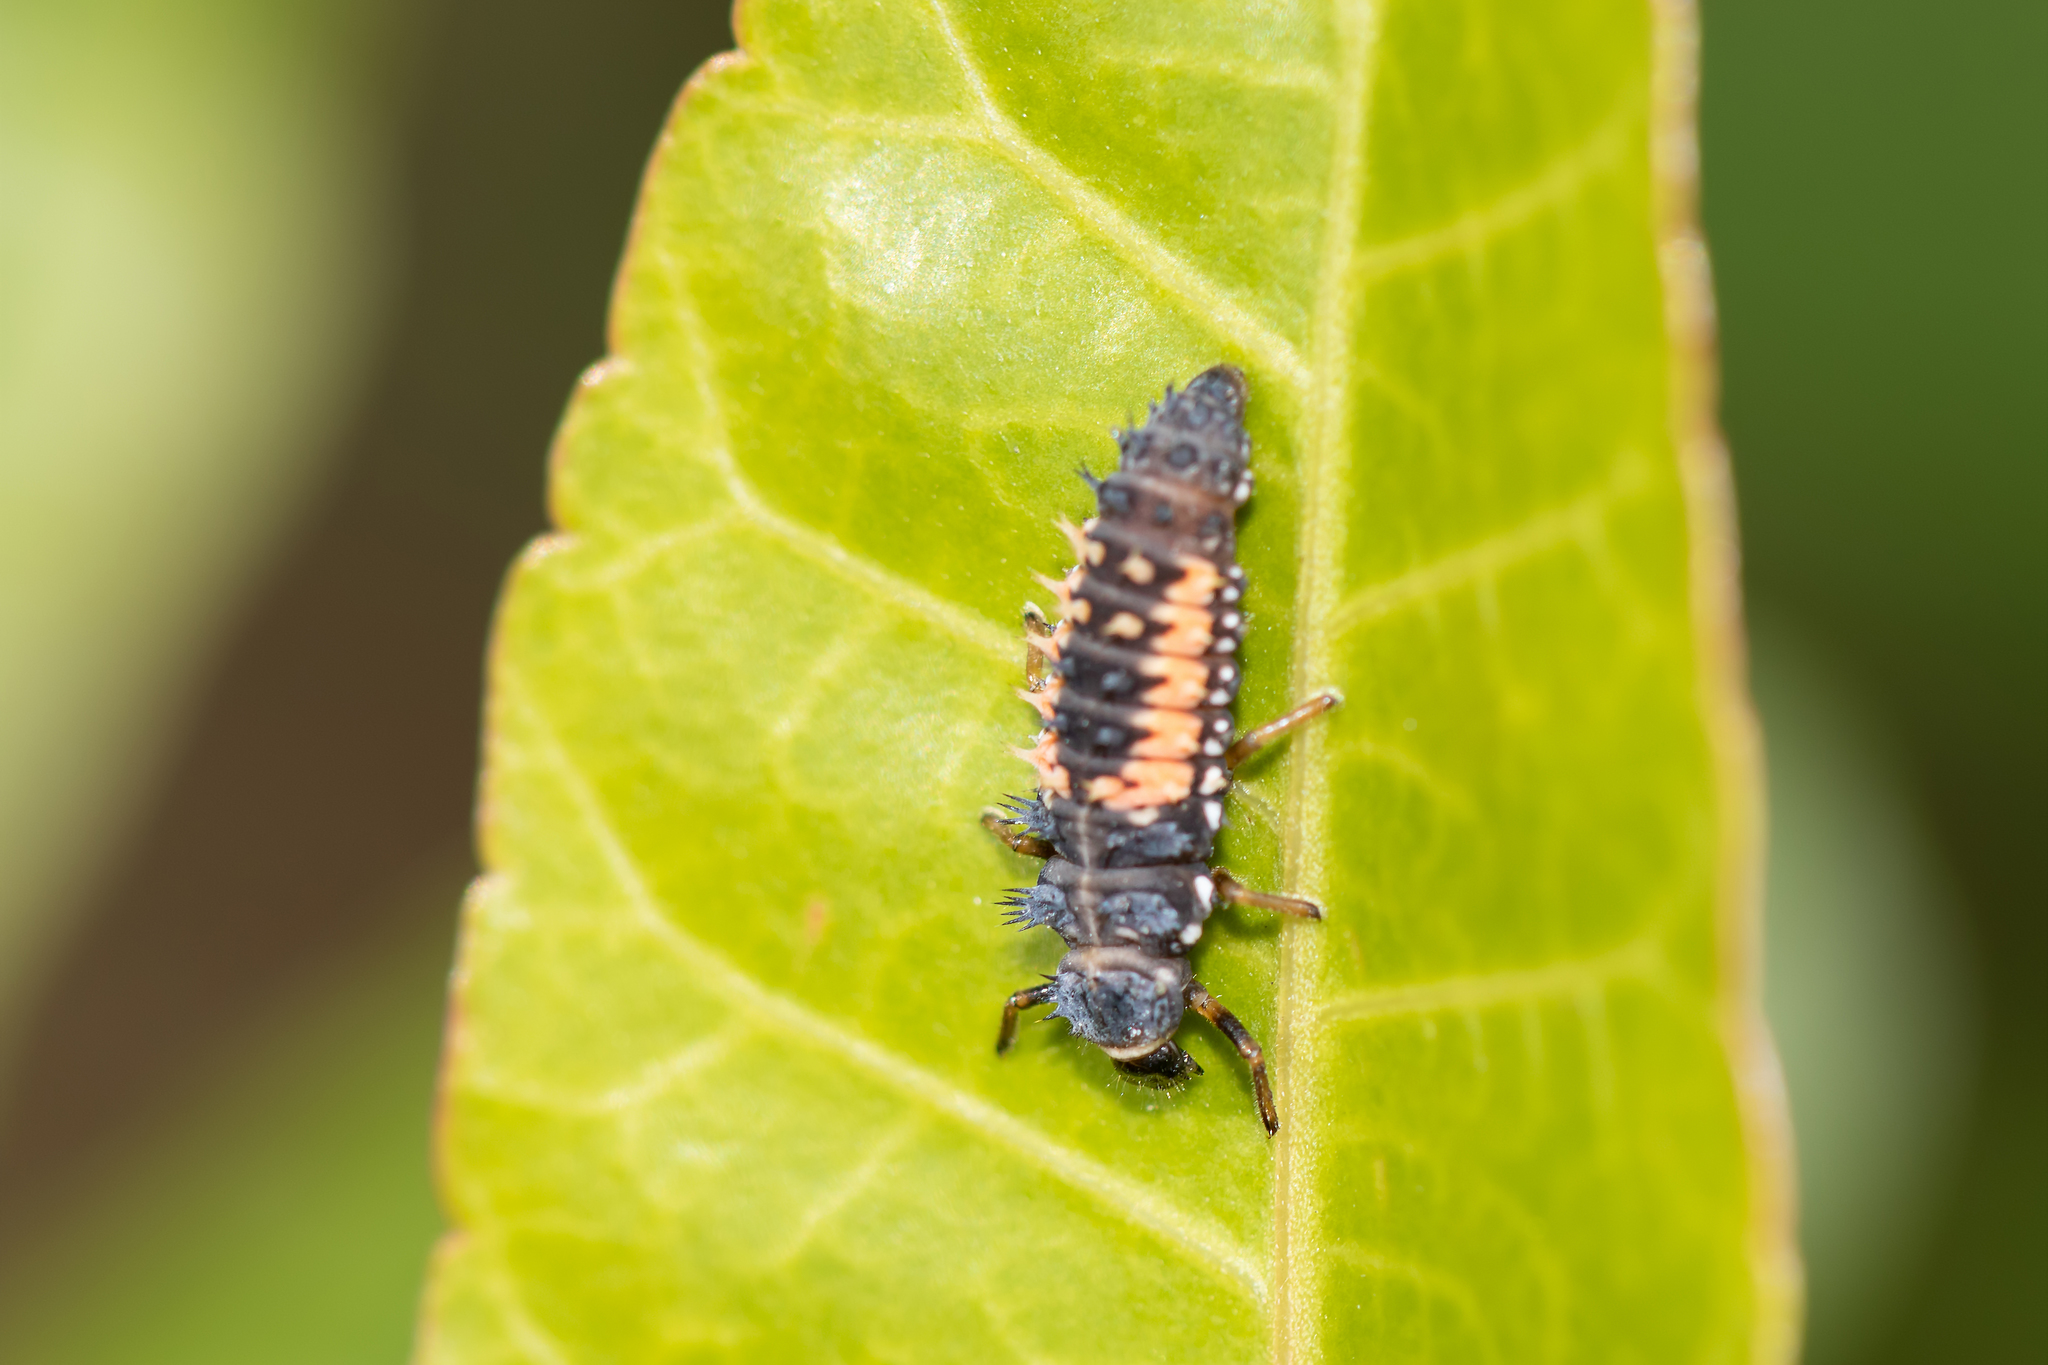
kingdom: Animalia
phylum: Arthropoda
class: Insecta
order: Coleoptera
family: Coccinellidae
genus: Harmonia
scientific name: Harmonia axyridis
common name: Harlequin ladybird
